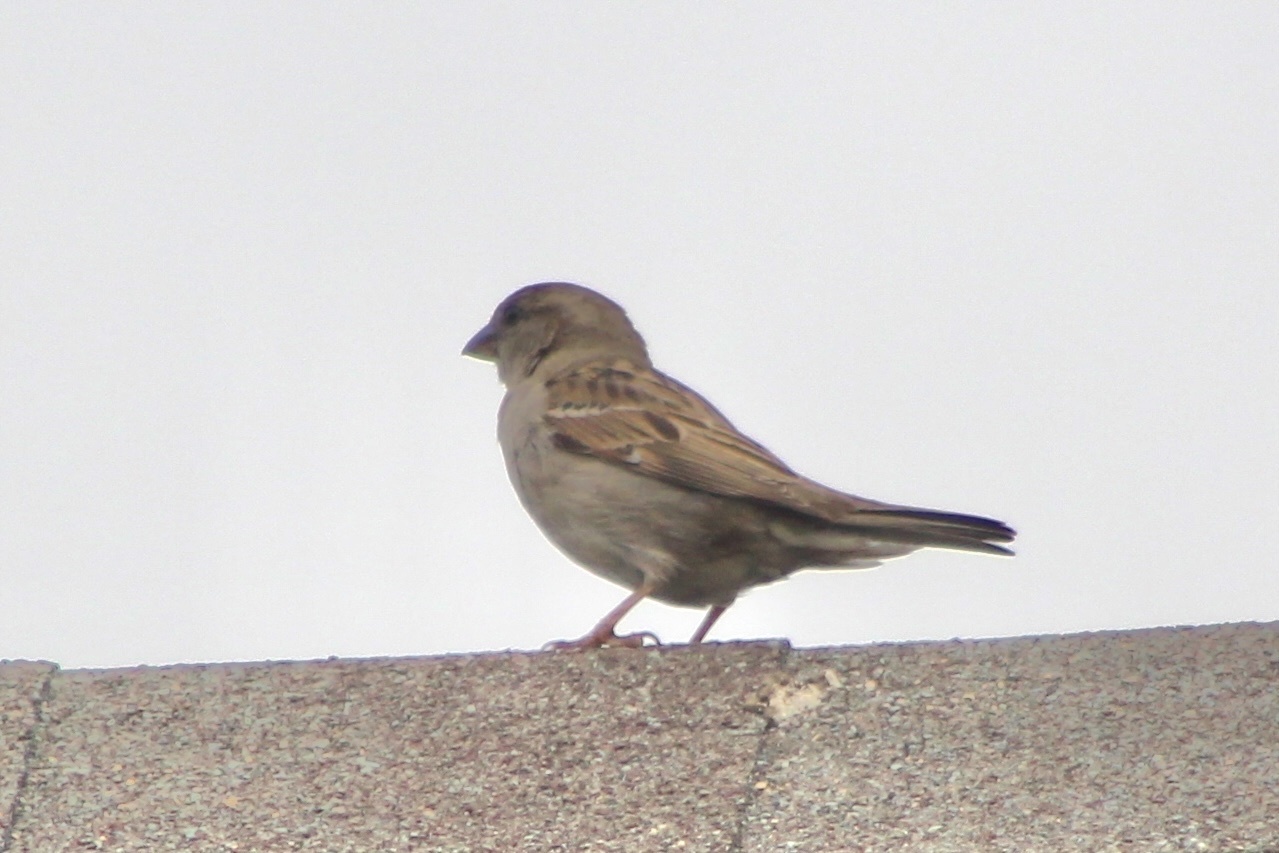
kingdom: Animalia
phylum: Chordata
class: Aves
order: Passeriformes
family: Passeridae
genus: Passer
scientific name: Passer domesticus
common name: House sparrow
